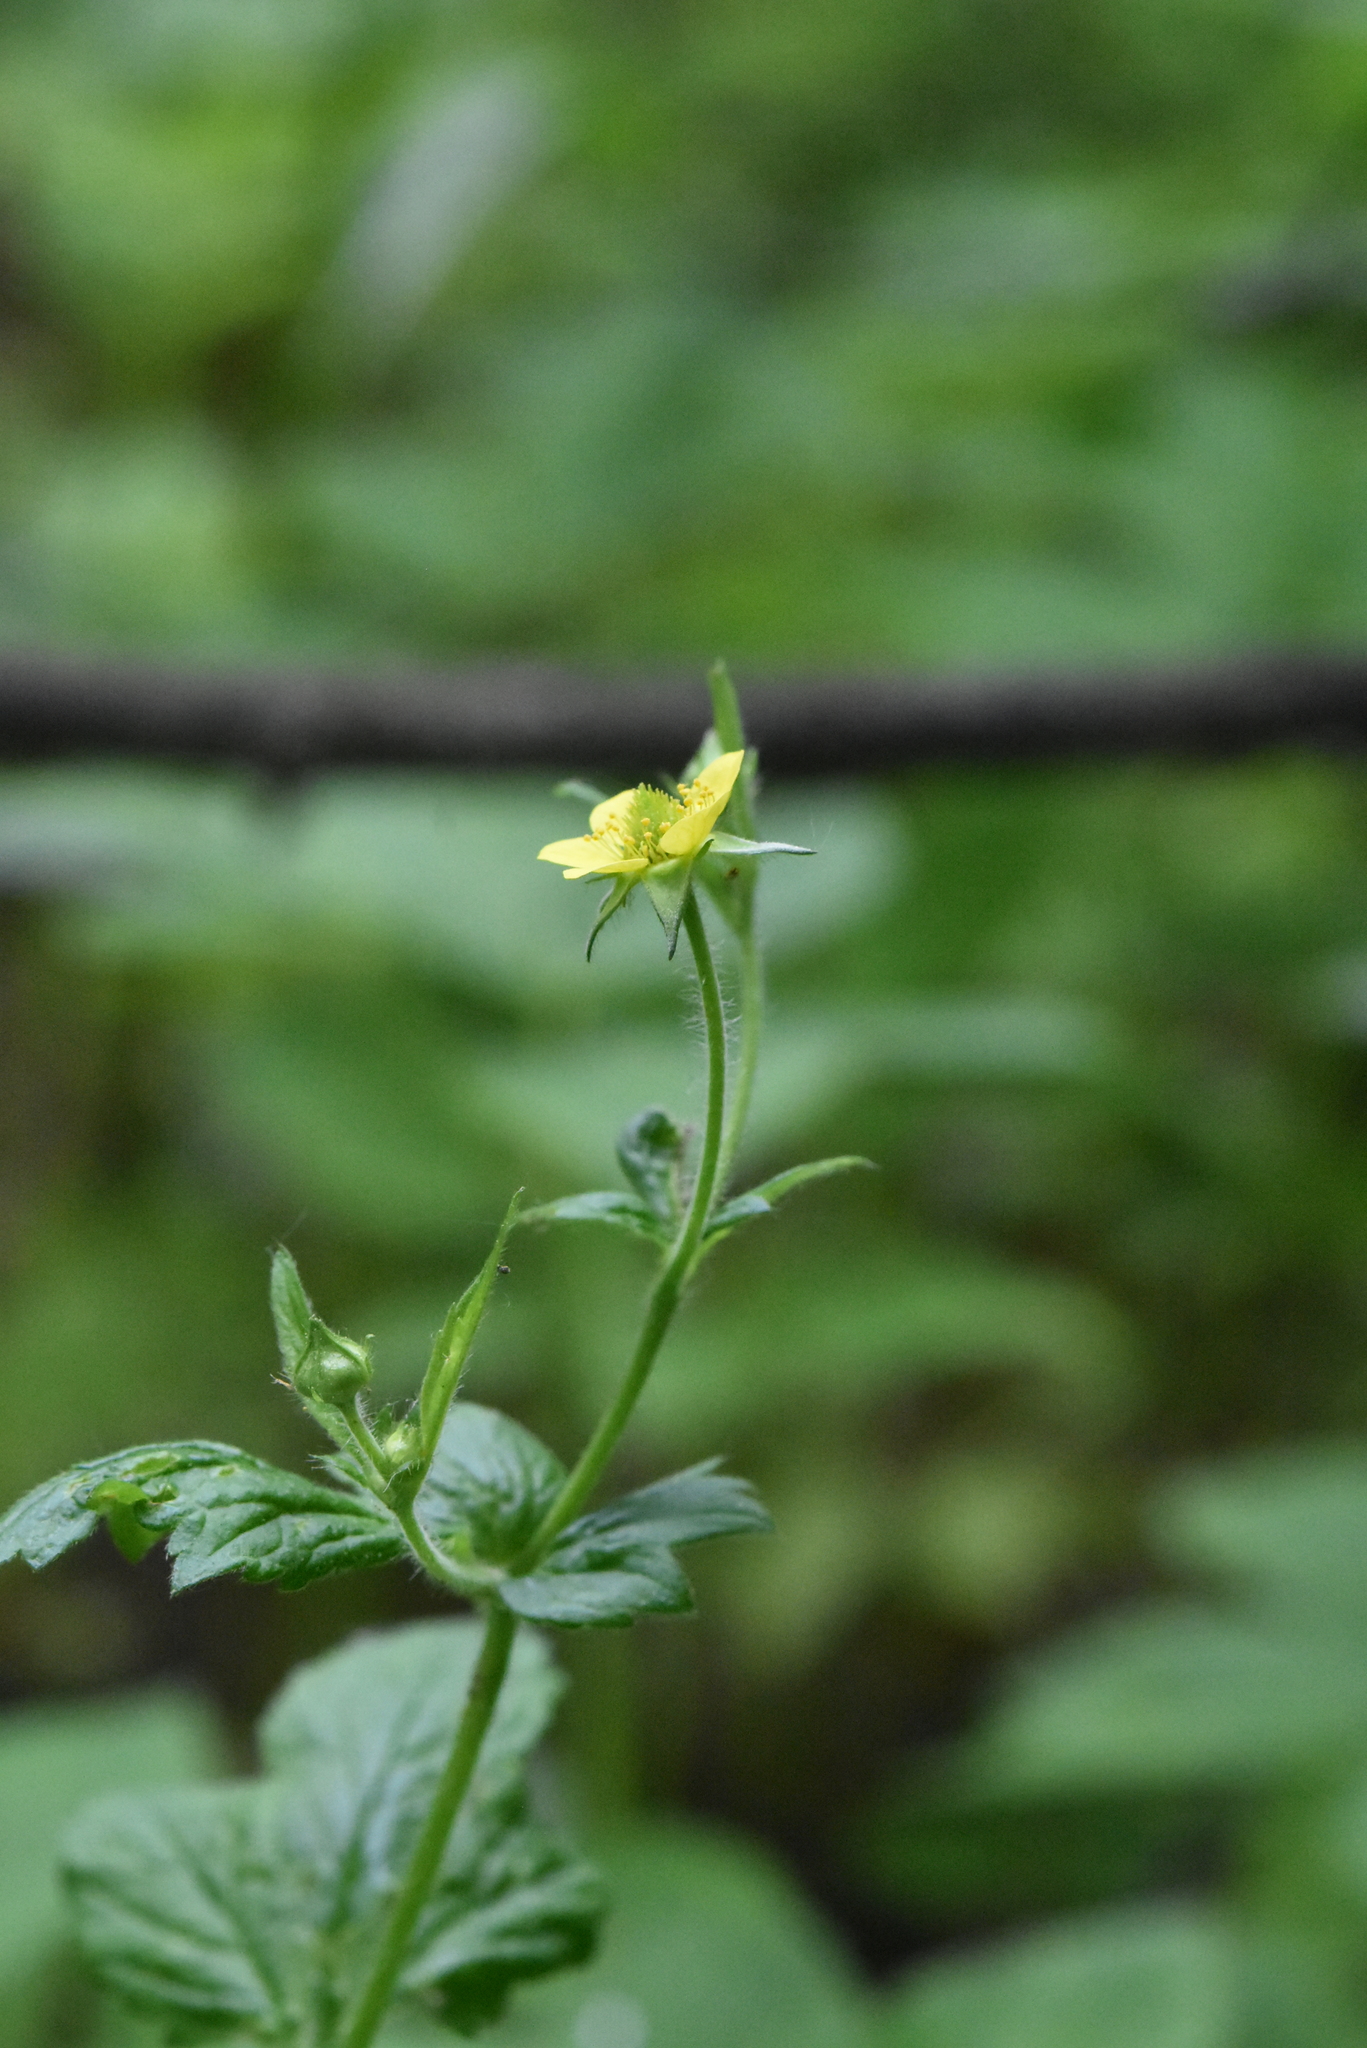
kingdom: Plantae
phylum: Tracheophyta
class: Magnoliopsida
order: Rosales
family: Rosaceae
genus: Geum
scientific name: Geum urbanum
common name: Wood avens
